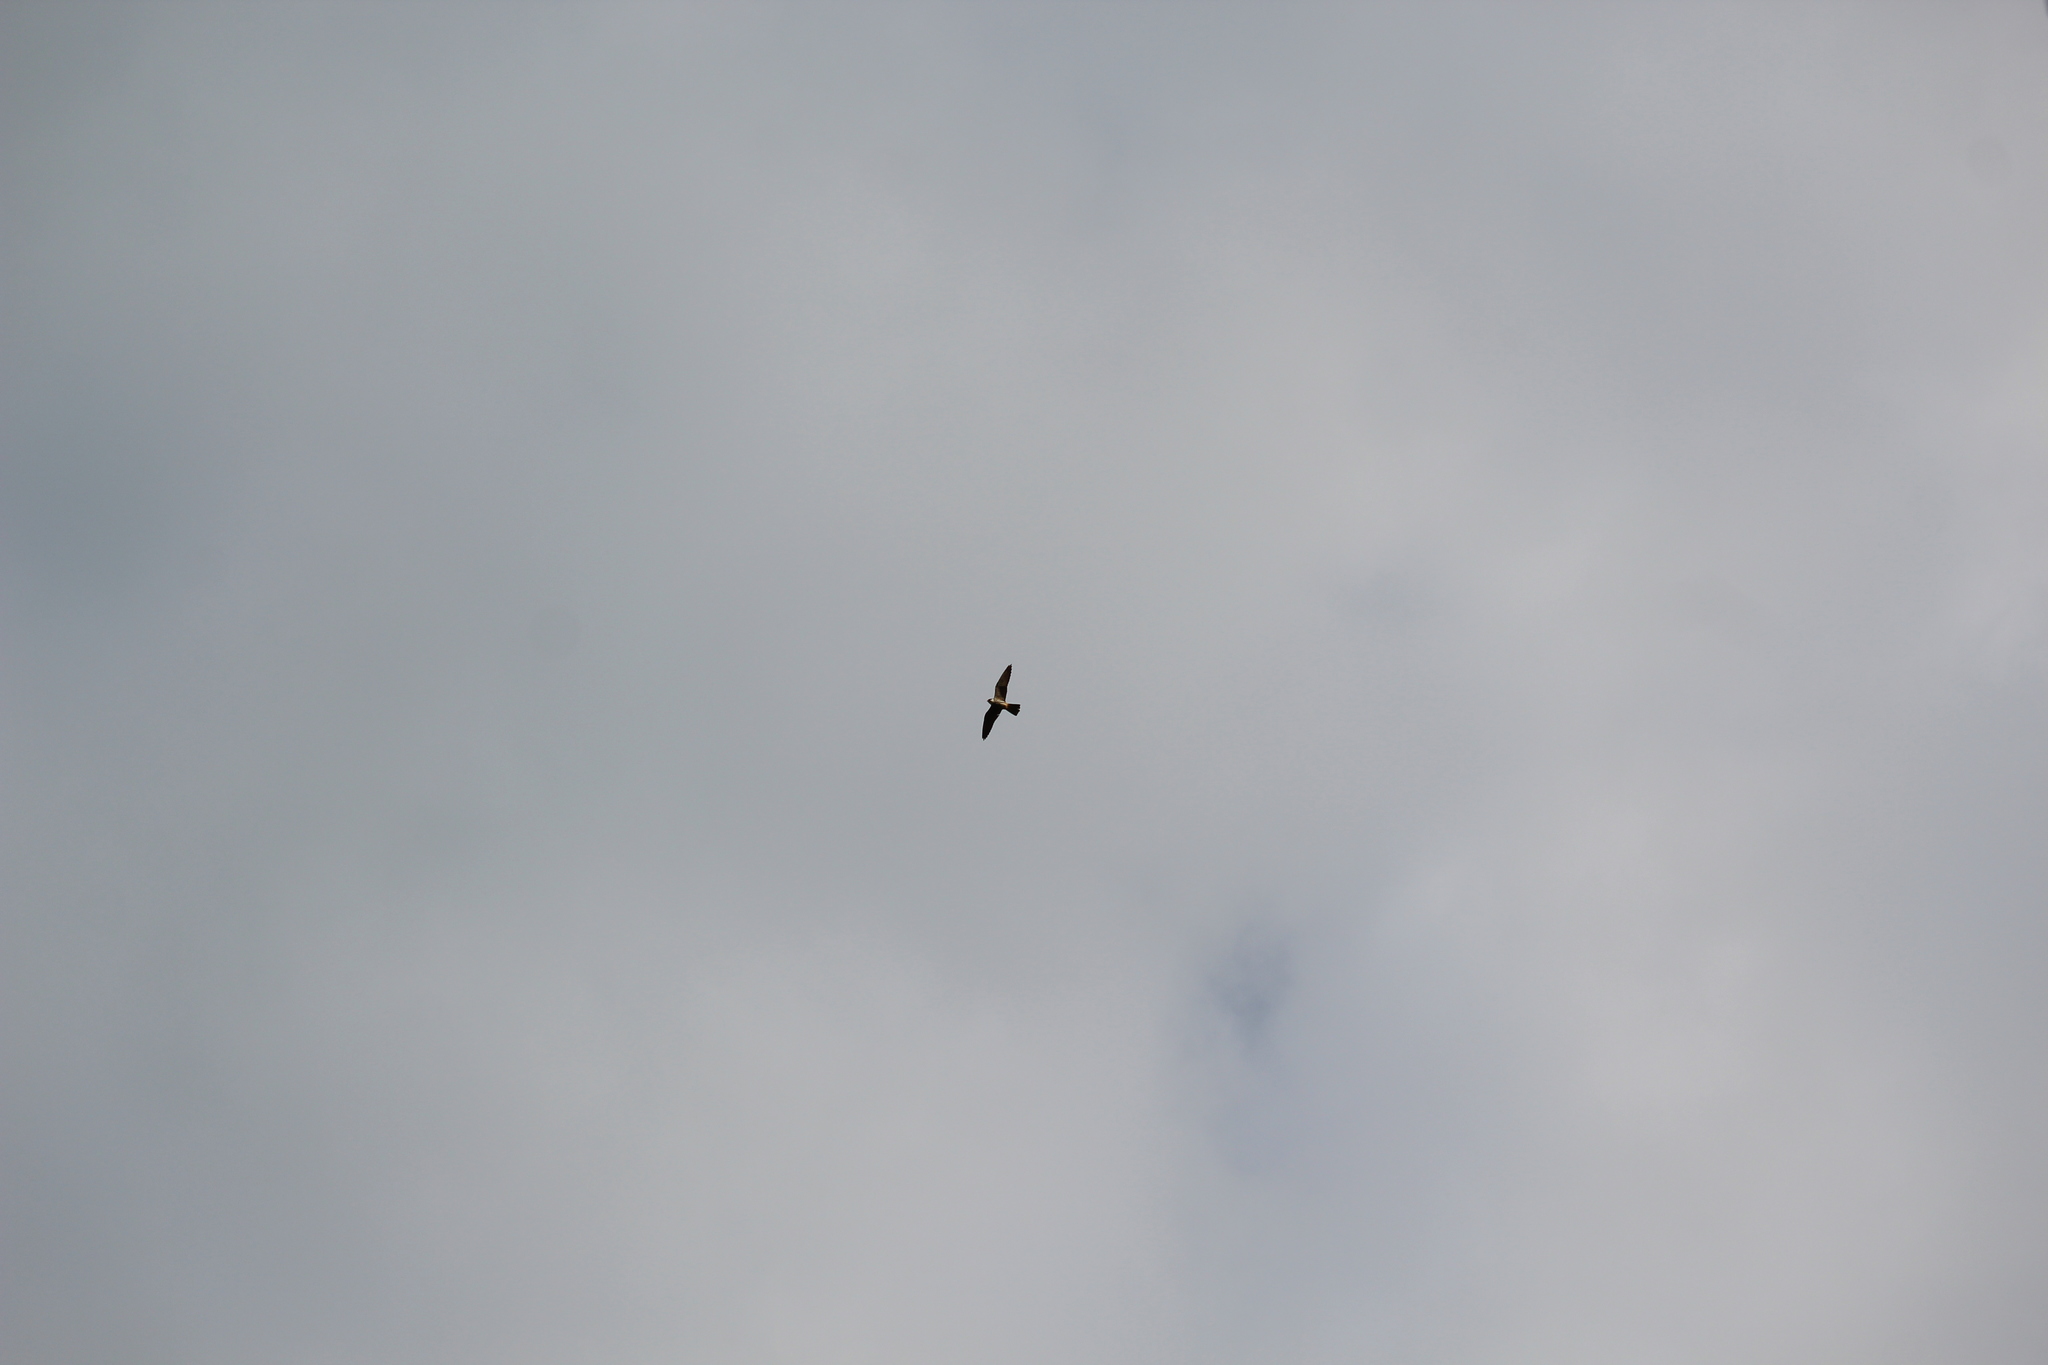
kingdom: Animalia
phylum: Chordata
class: Aves
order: Falconiformes
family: Falconidae
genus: Falco
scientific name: Falco subbuteo
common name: Eurasian hobby
